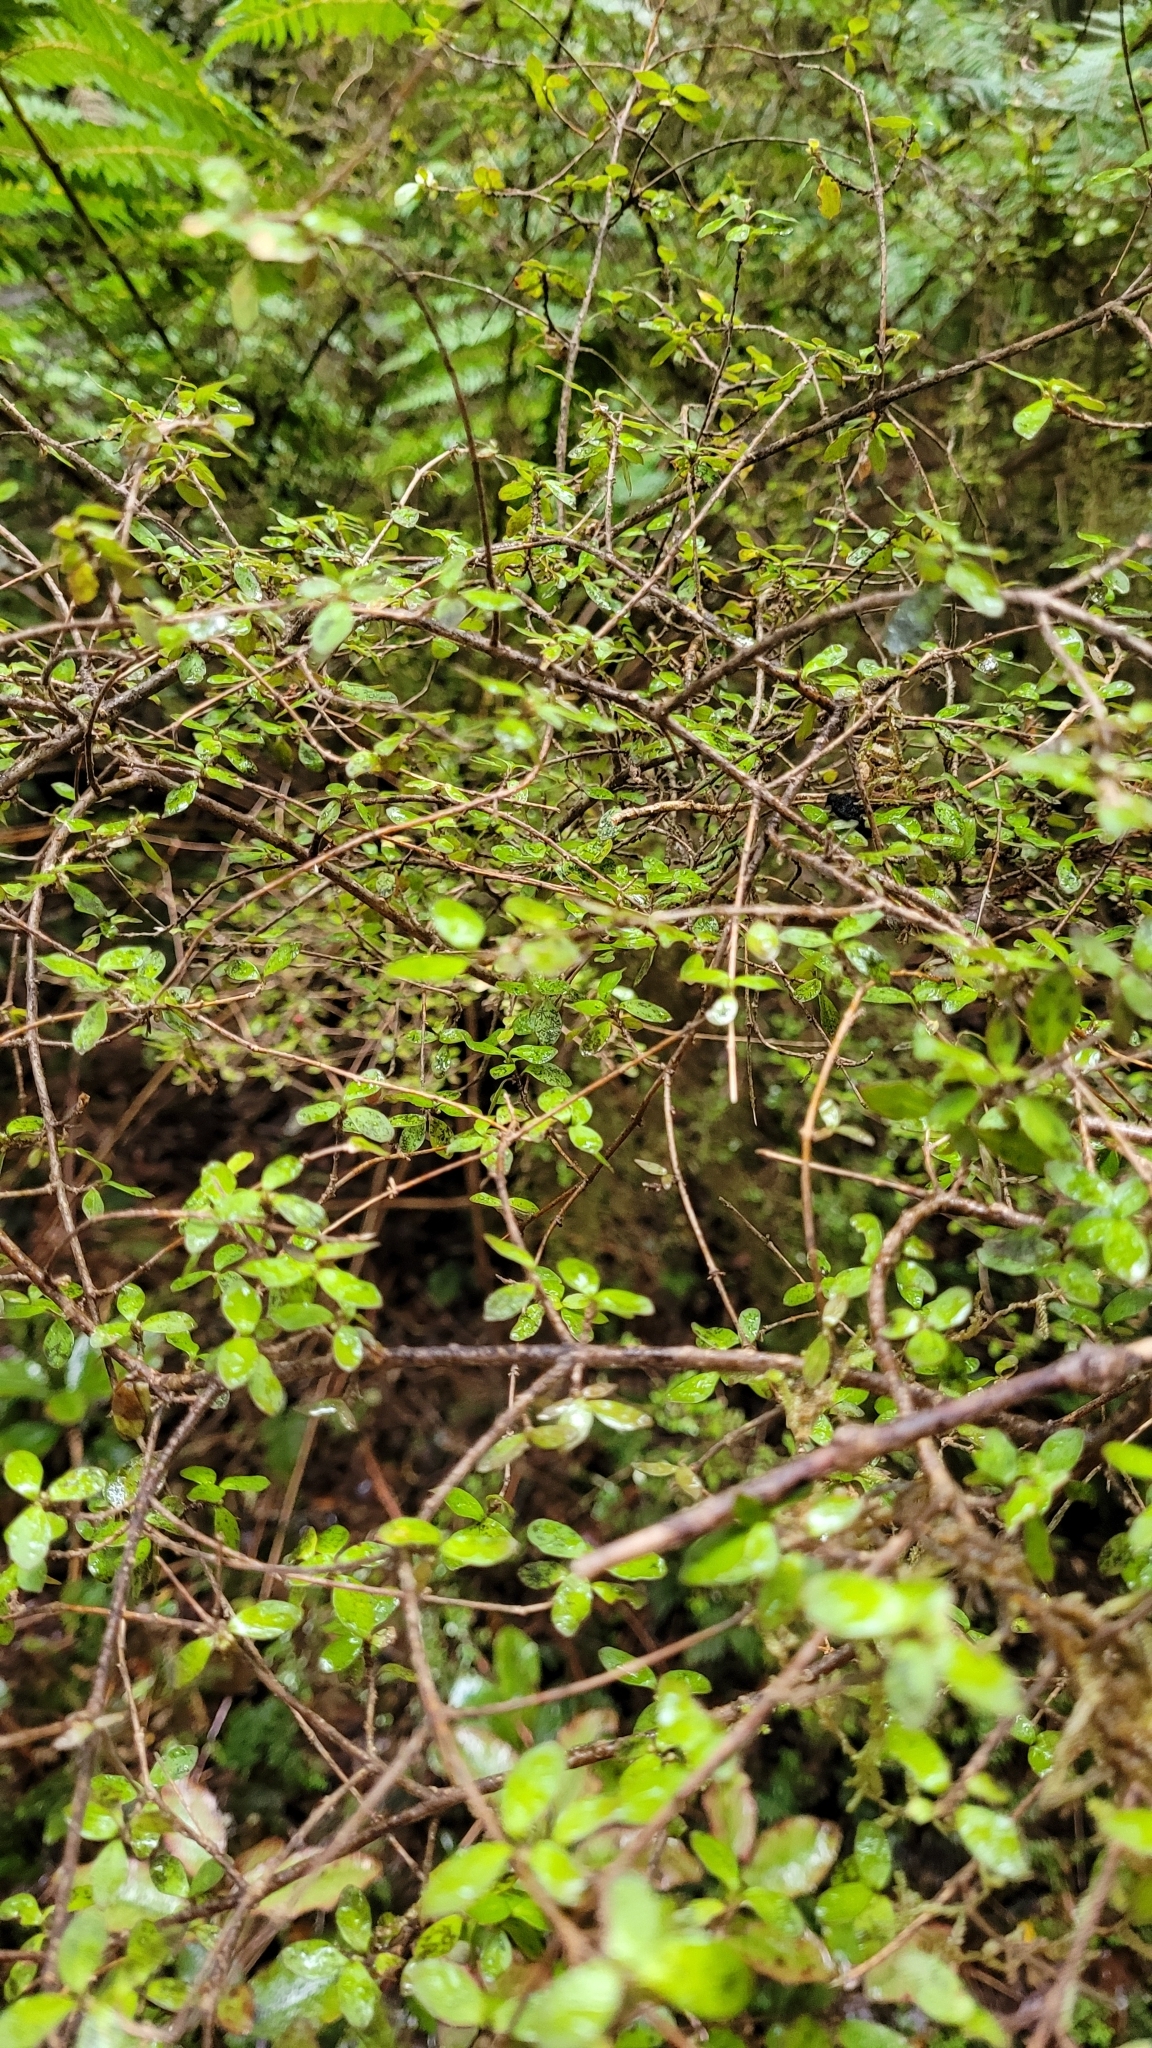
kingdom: Plantae
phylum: Tracheophyta
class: Magnoliopsida
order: Gentianales
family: Rubiaceae
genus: Coprosma
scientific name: Coprosma rhamnoides
